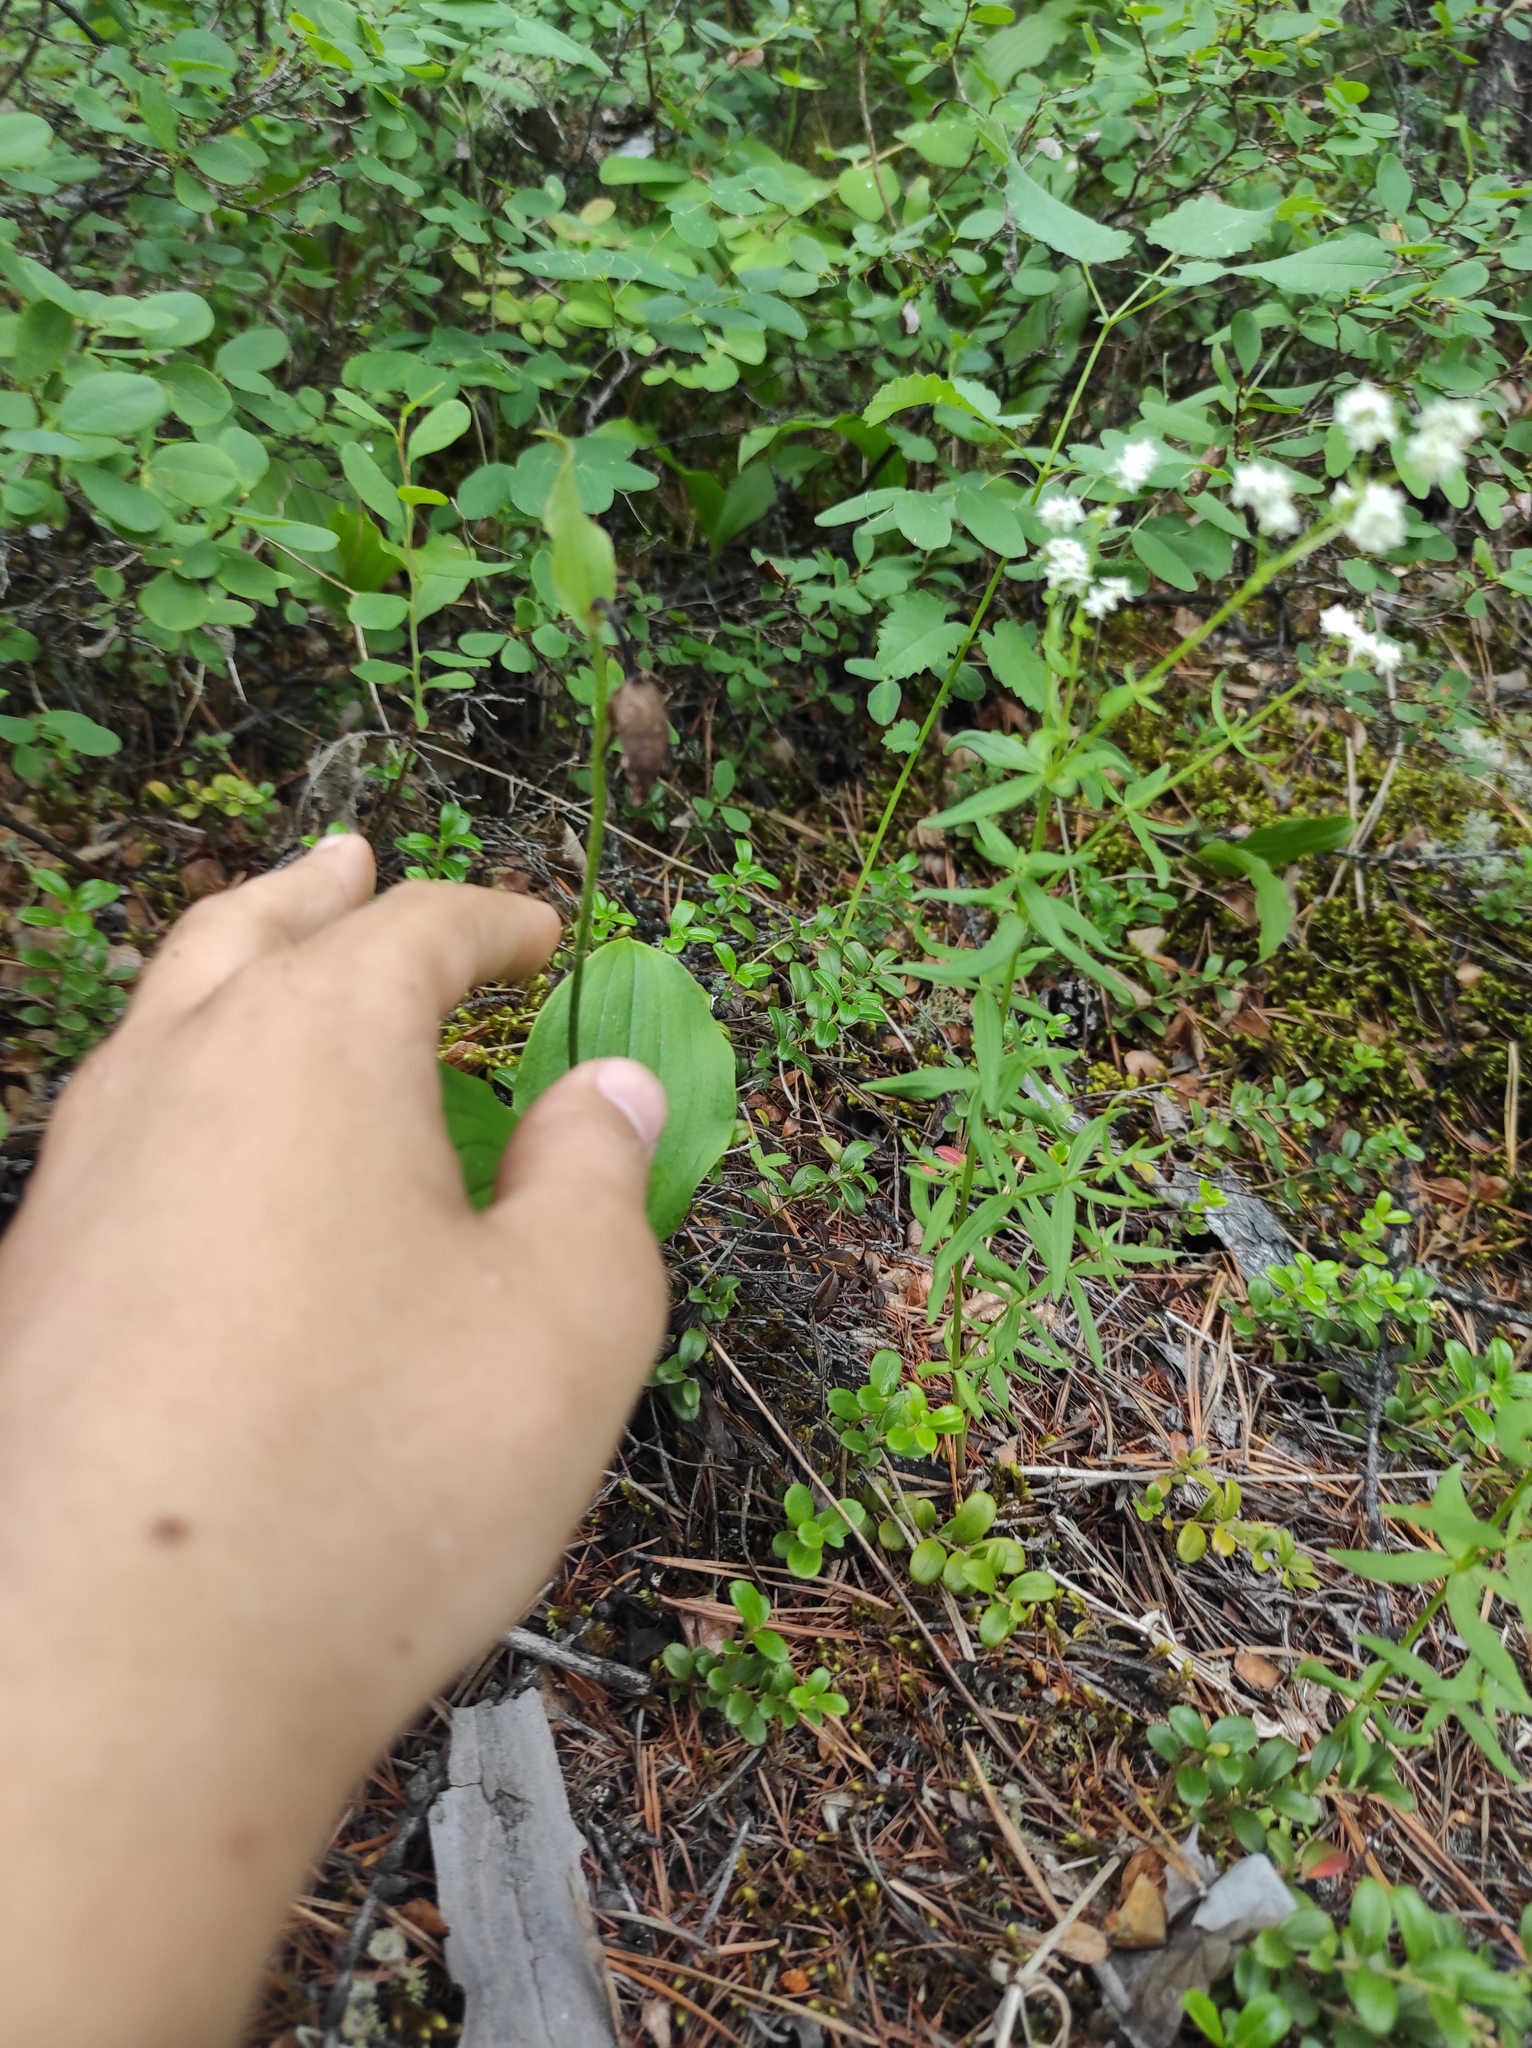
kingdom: Plantae
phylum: Tracheophyta
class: Liliopsida
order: Asparagales
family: Orchidaceae
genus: Cypripedium
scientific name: Cypripedium guttatum
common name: Pink lady slipper
